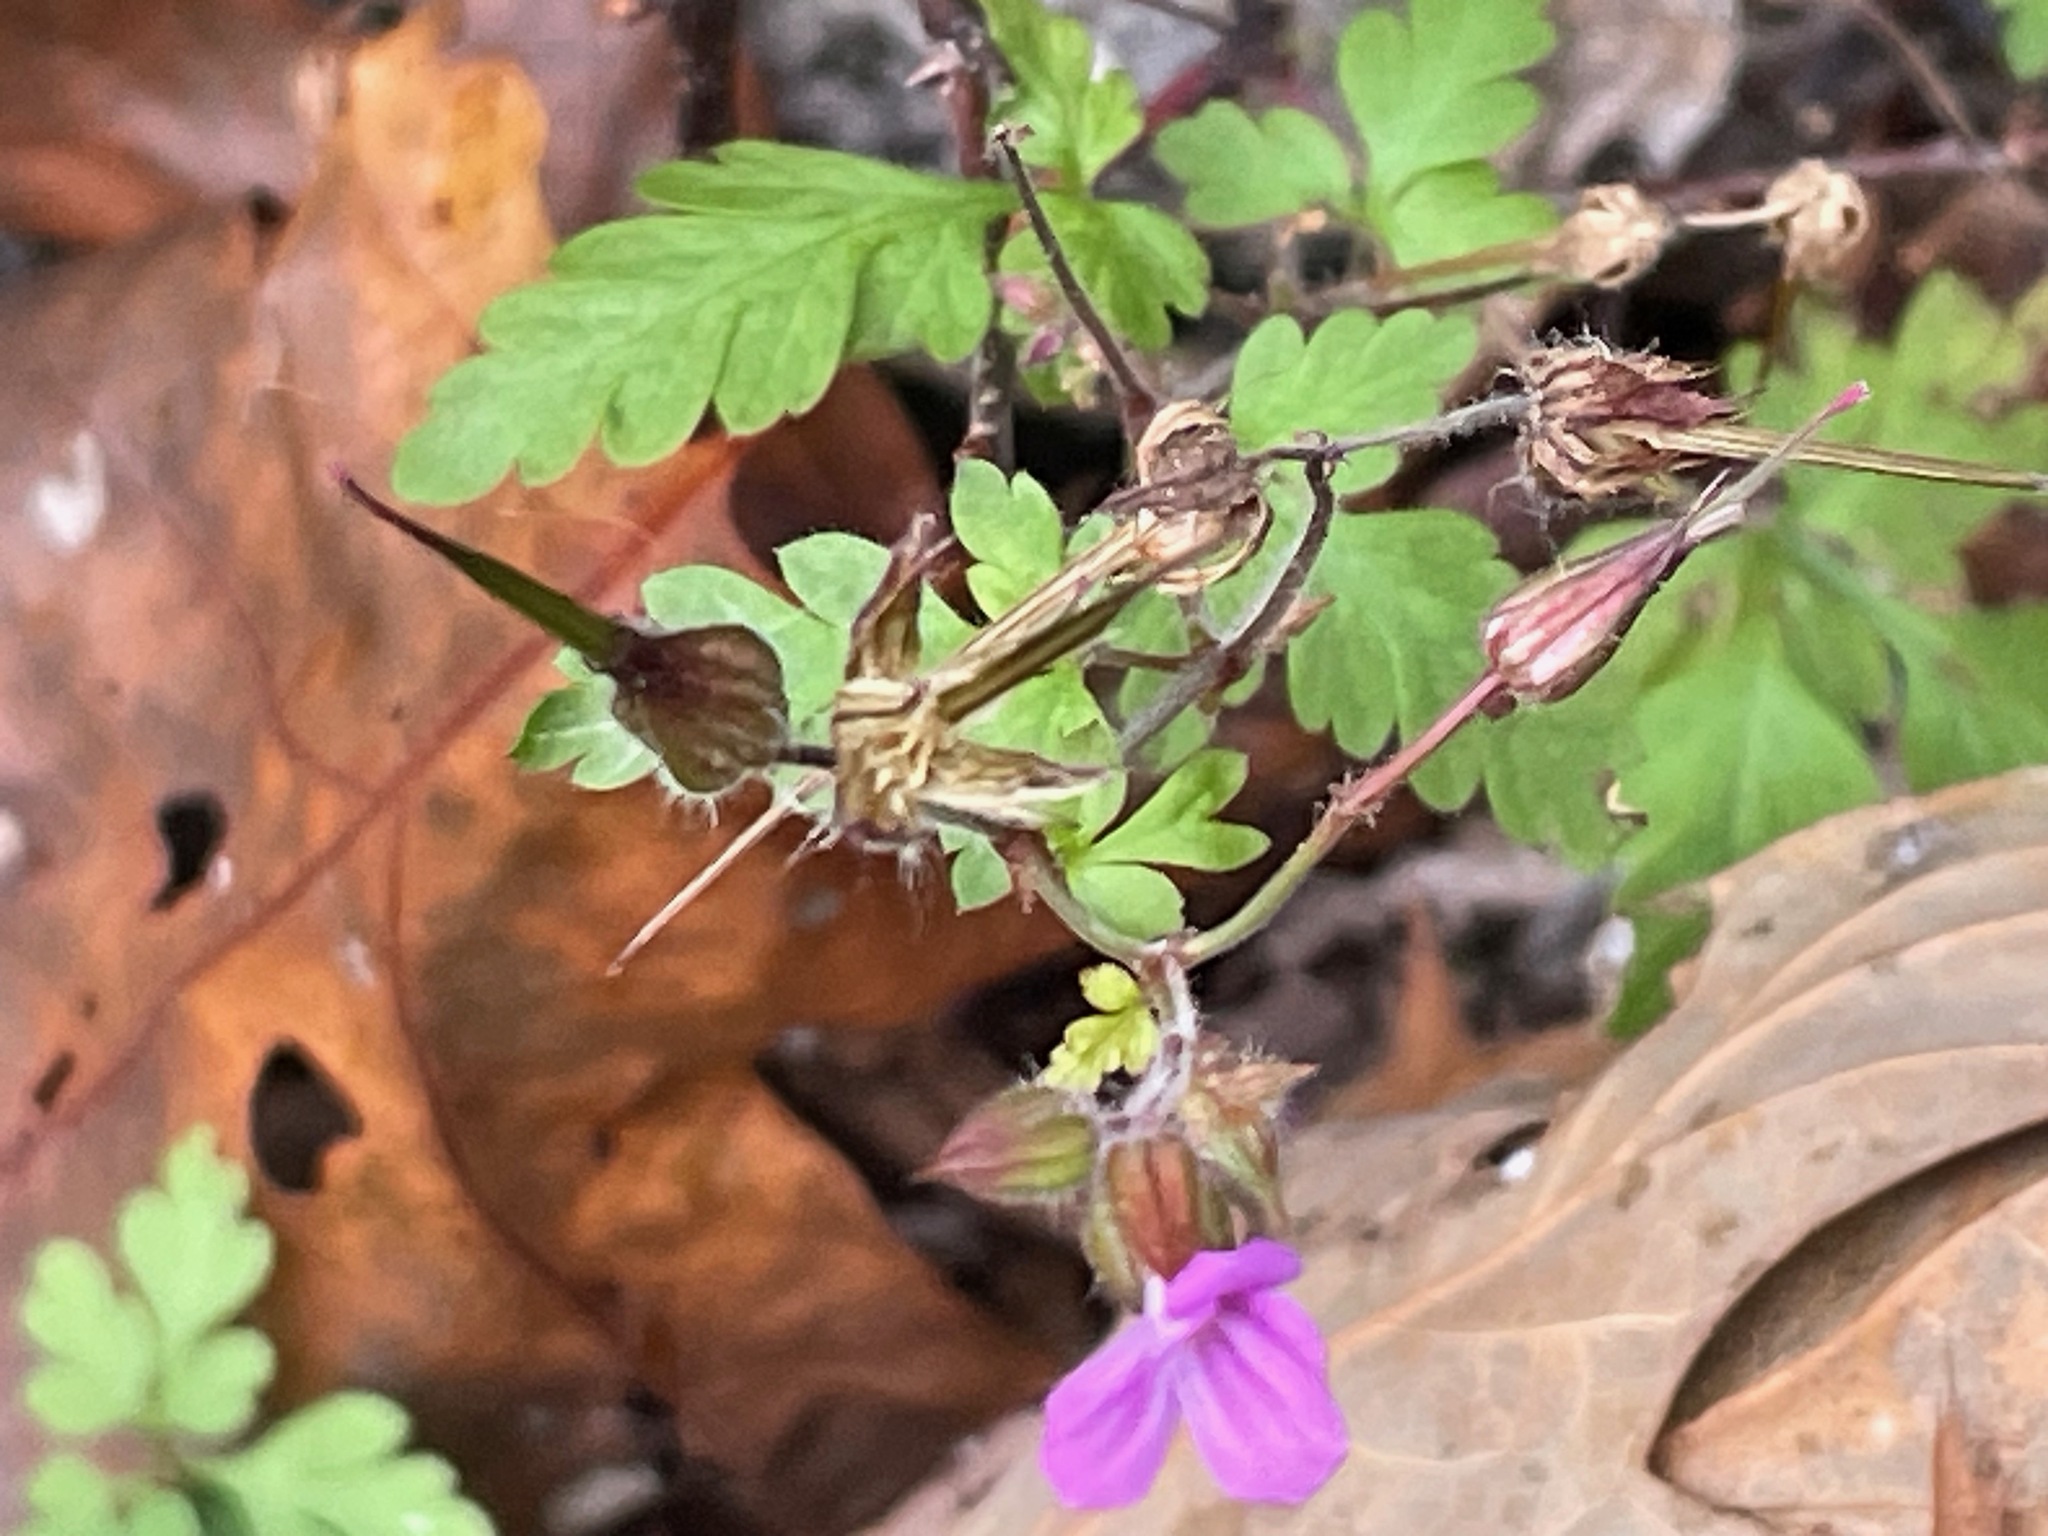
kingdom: Plantae
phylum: Tracheophyta
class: Magnoliopsida
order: Geraniales
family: Geraniaceae
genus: Geranium
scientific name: Geranium robertianum
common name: Herb-robert
